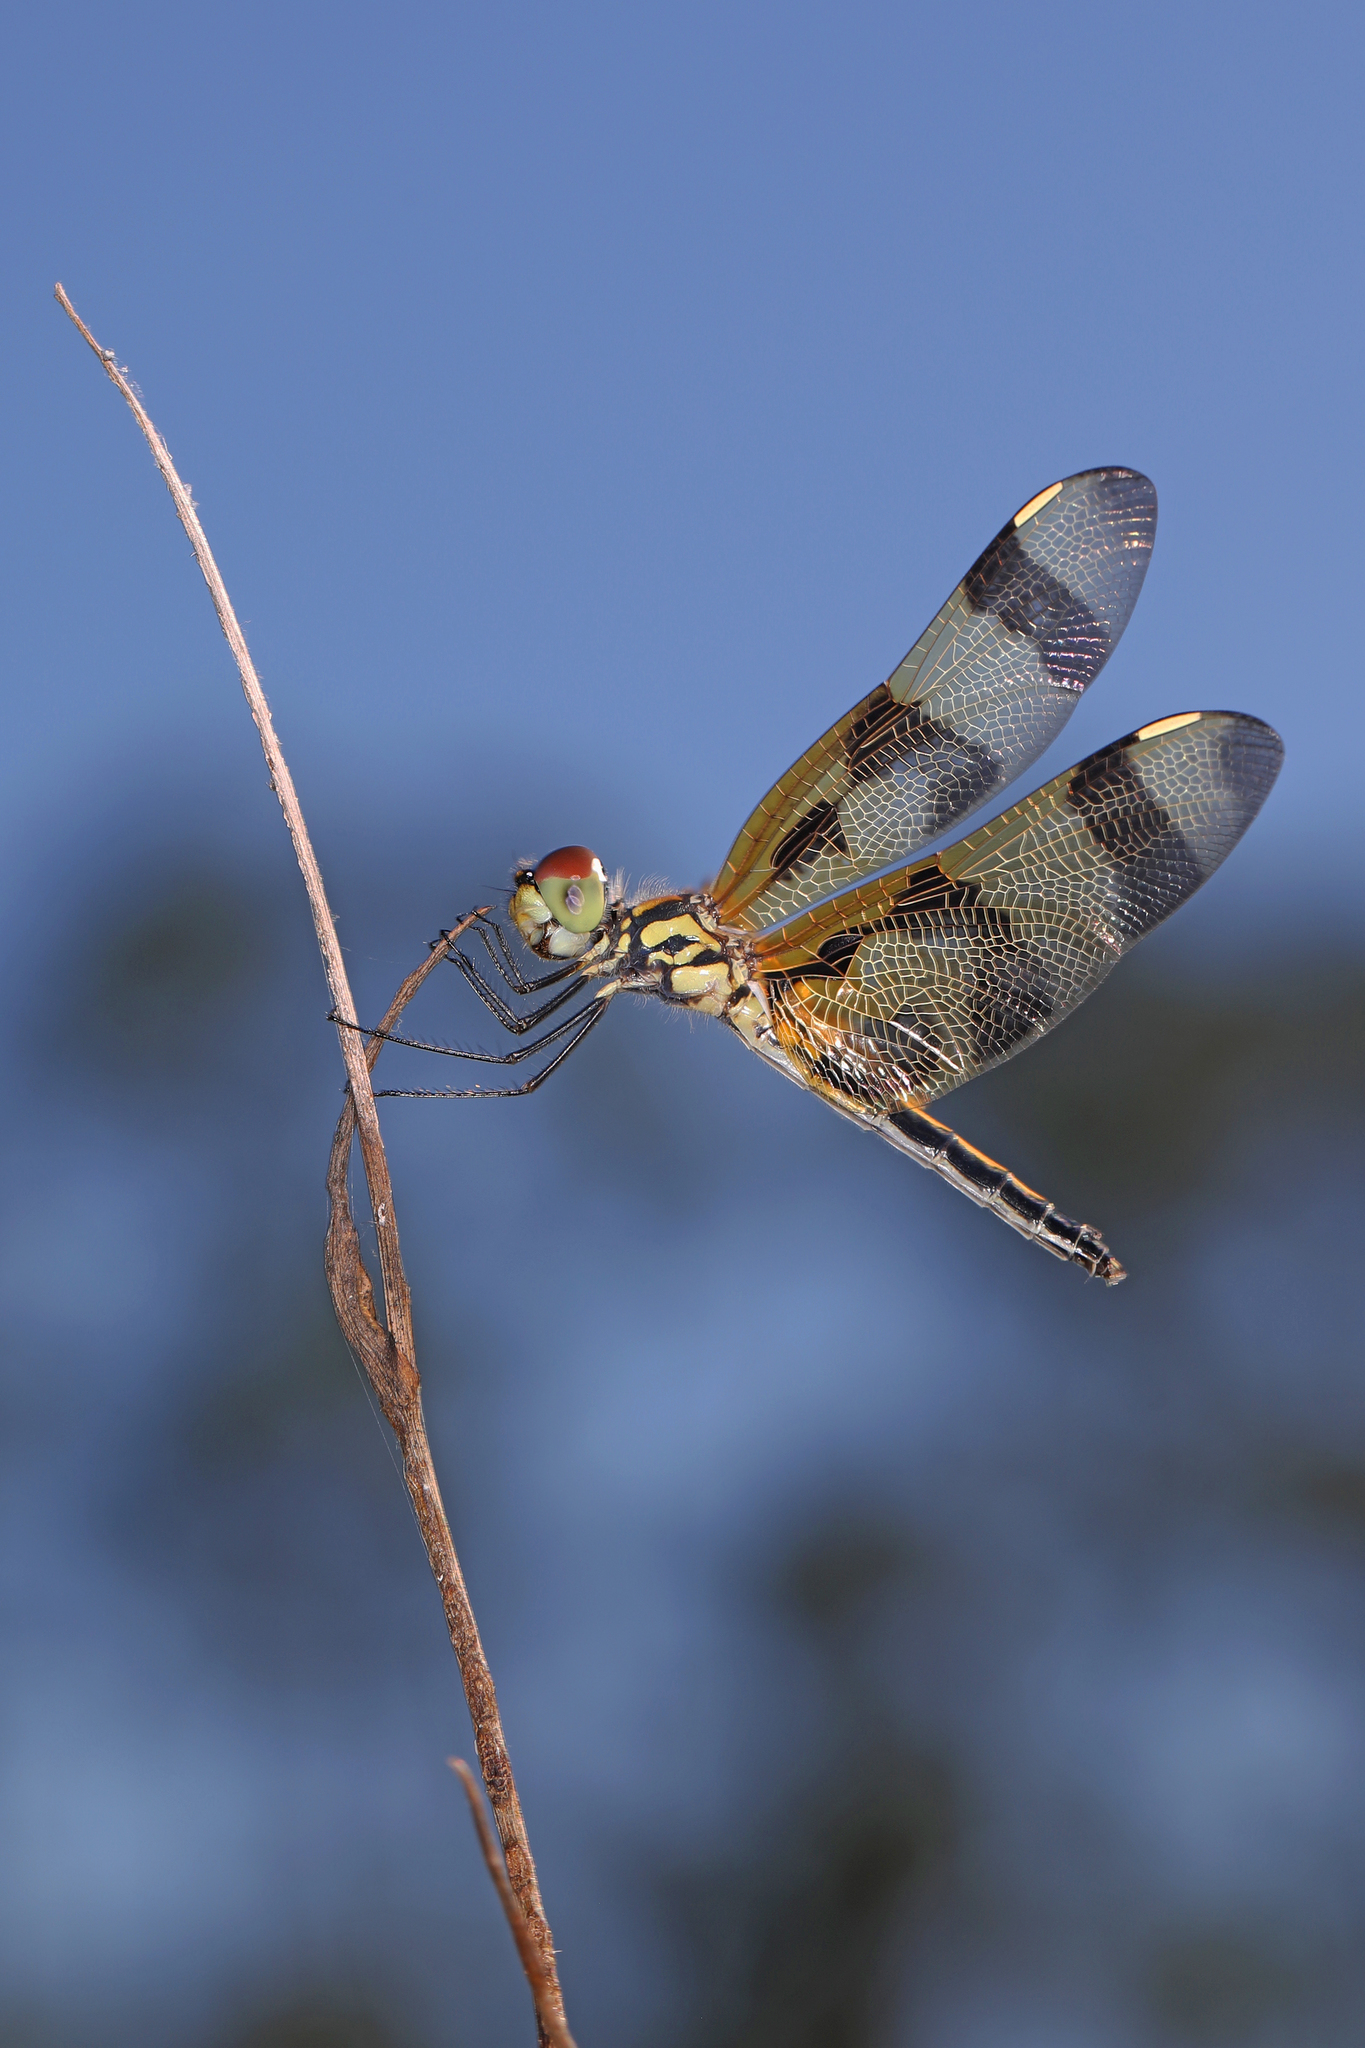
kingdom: Animalia
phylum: Arthropoda
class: Insecta
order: Odonata
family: Libellulidae
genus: Celithemis
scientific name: Celithemis eponina
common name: Halloween pennant
